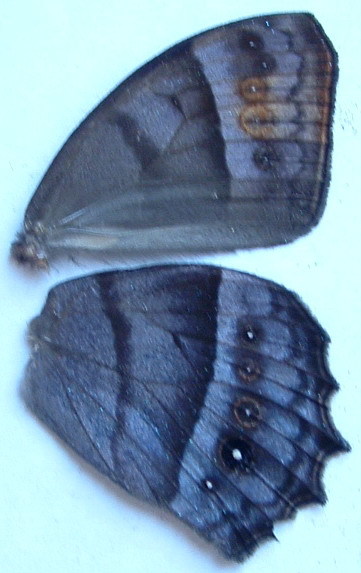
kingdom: Animalia
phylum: Arthropoda
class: Insecta
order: Lepidoptera
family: Nymphalidae
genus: Taygetis
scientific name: Taygetis andromeda
